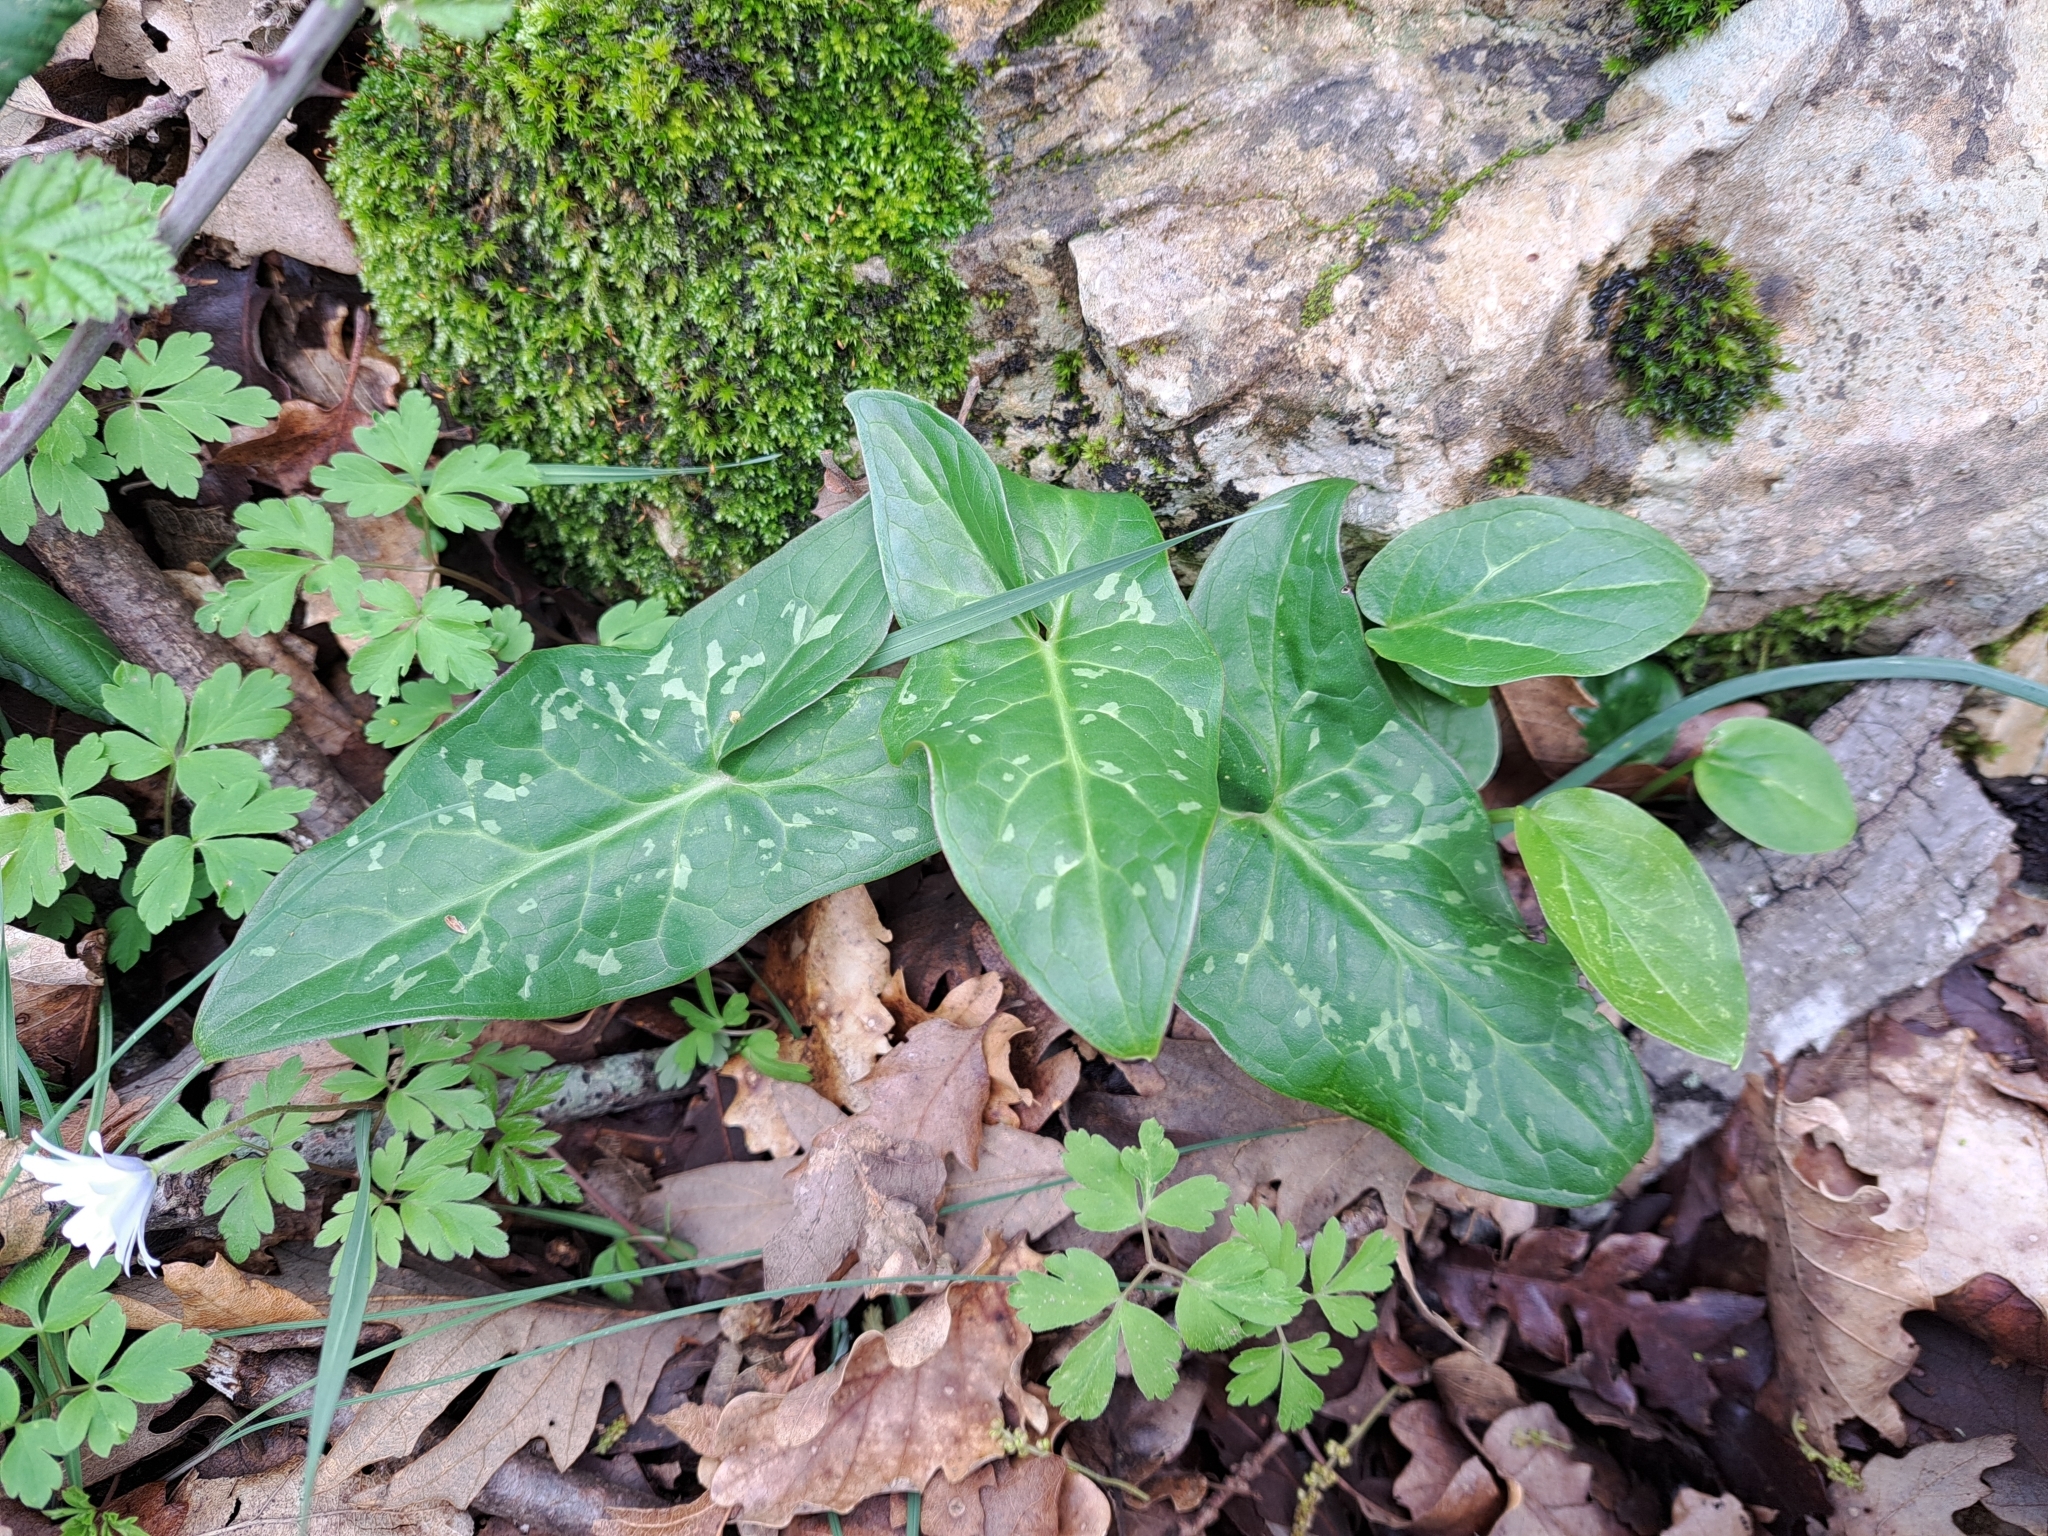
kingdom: Plantae
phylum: Tracheophyta
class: Liliopsida
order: Alismatales
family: Araceae
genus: Arum
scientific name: Arum italicum
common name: Italian lords-and-ladies
